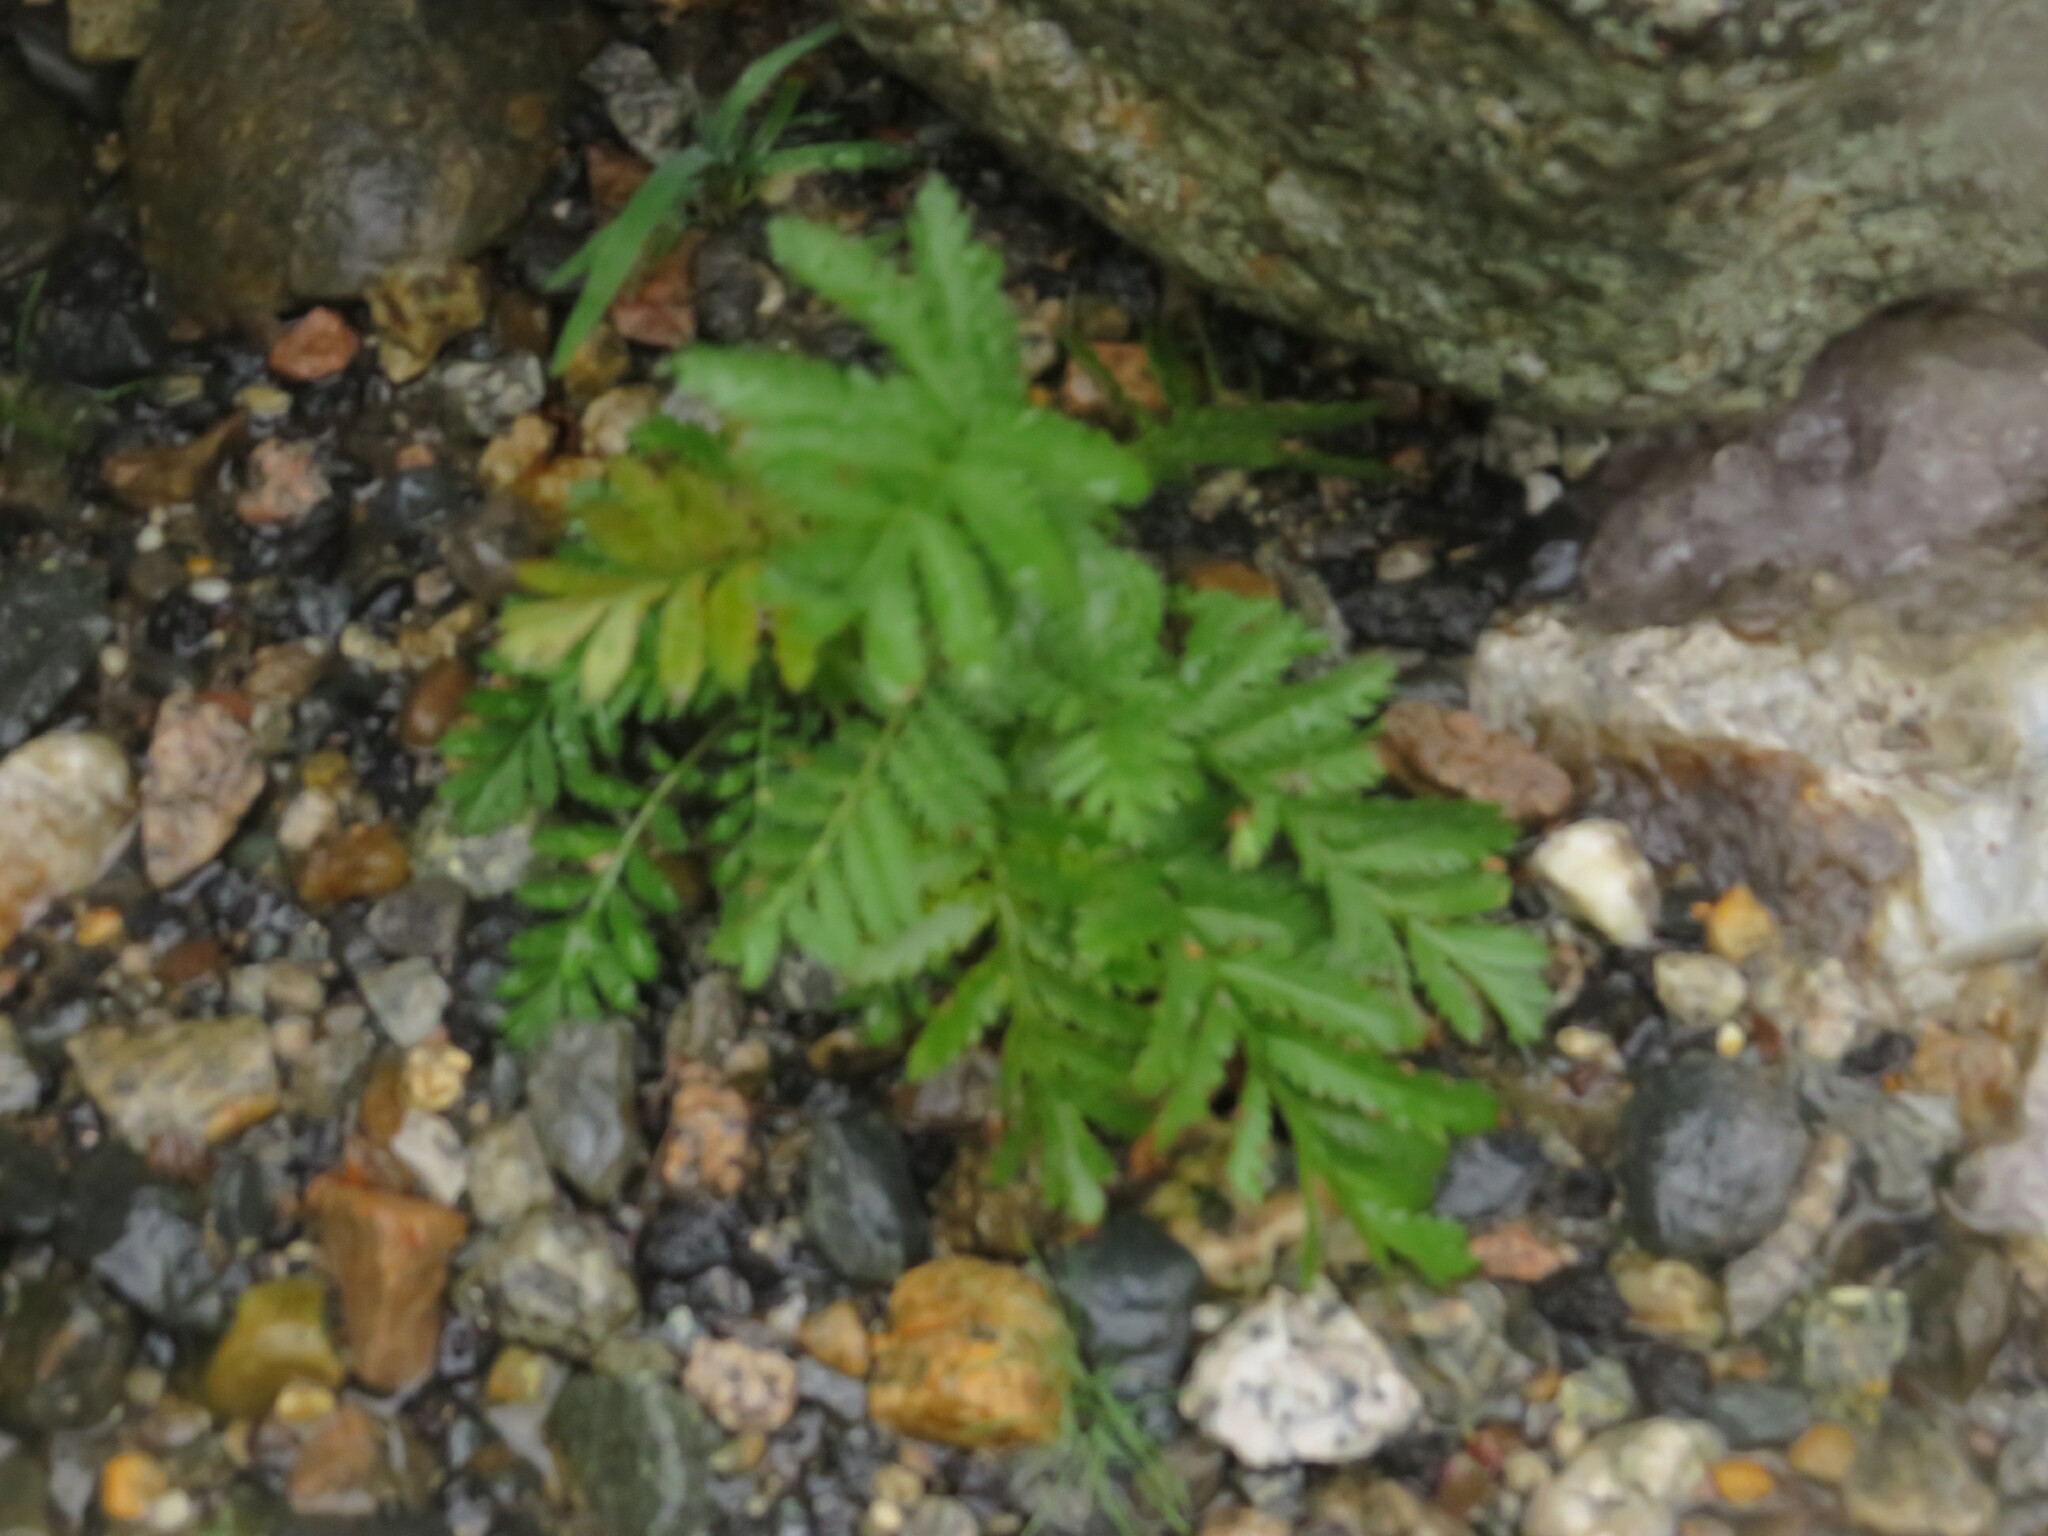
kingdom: Plantae
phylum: Tracheophyta
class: Magnoliopsida
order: Asterales
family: Asteraceae
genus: Tanacetum
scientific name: Tanacetum vulgare
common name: Common tansy
